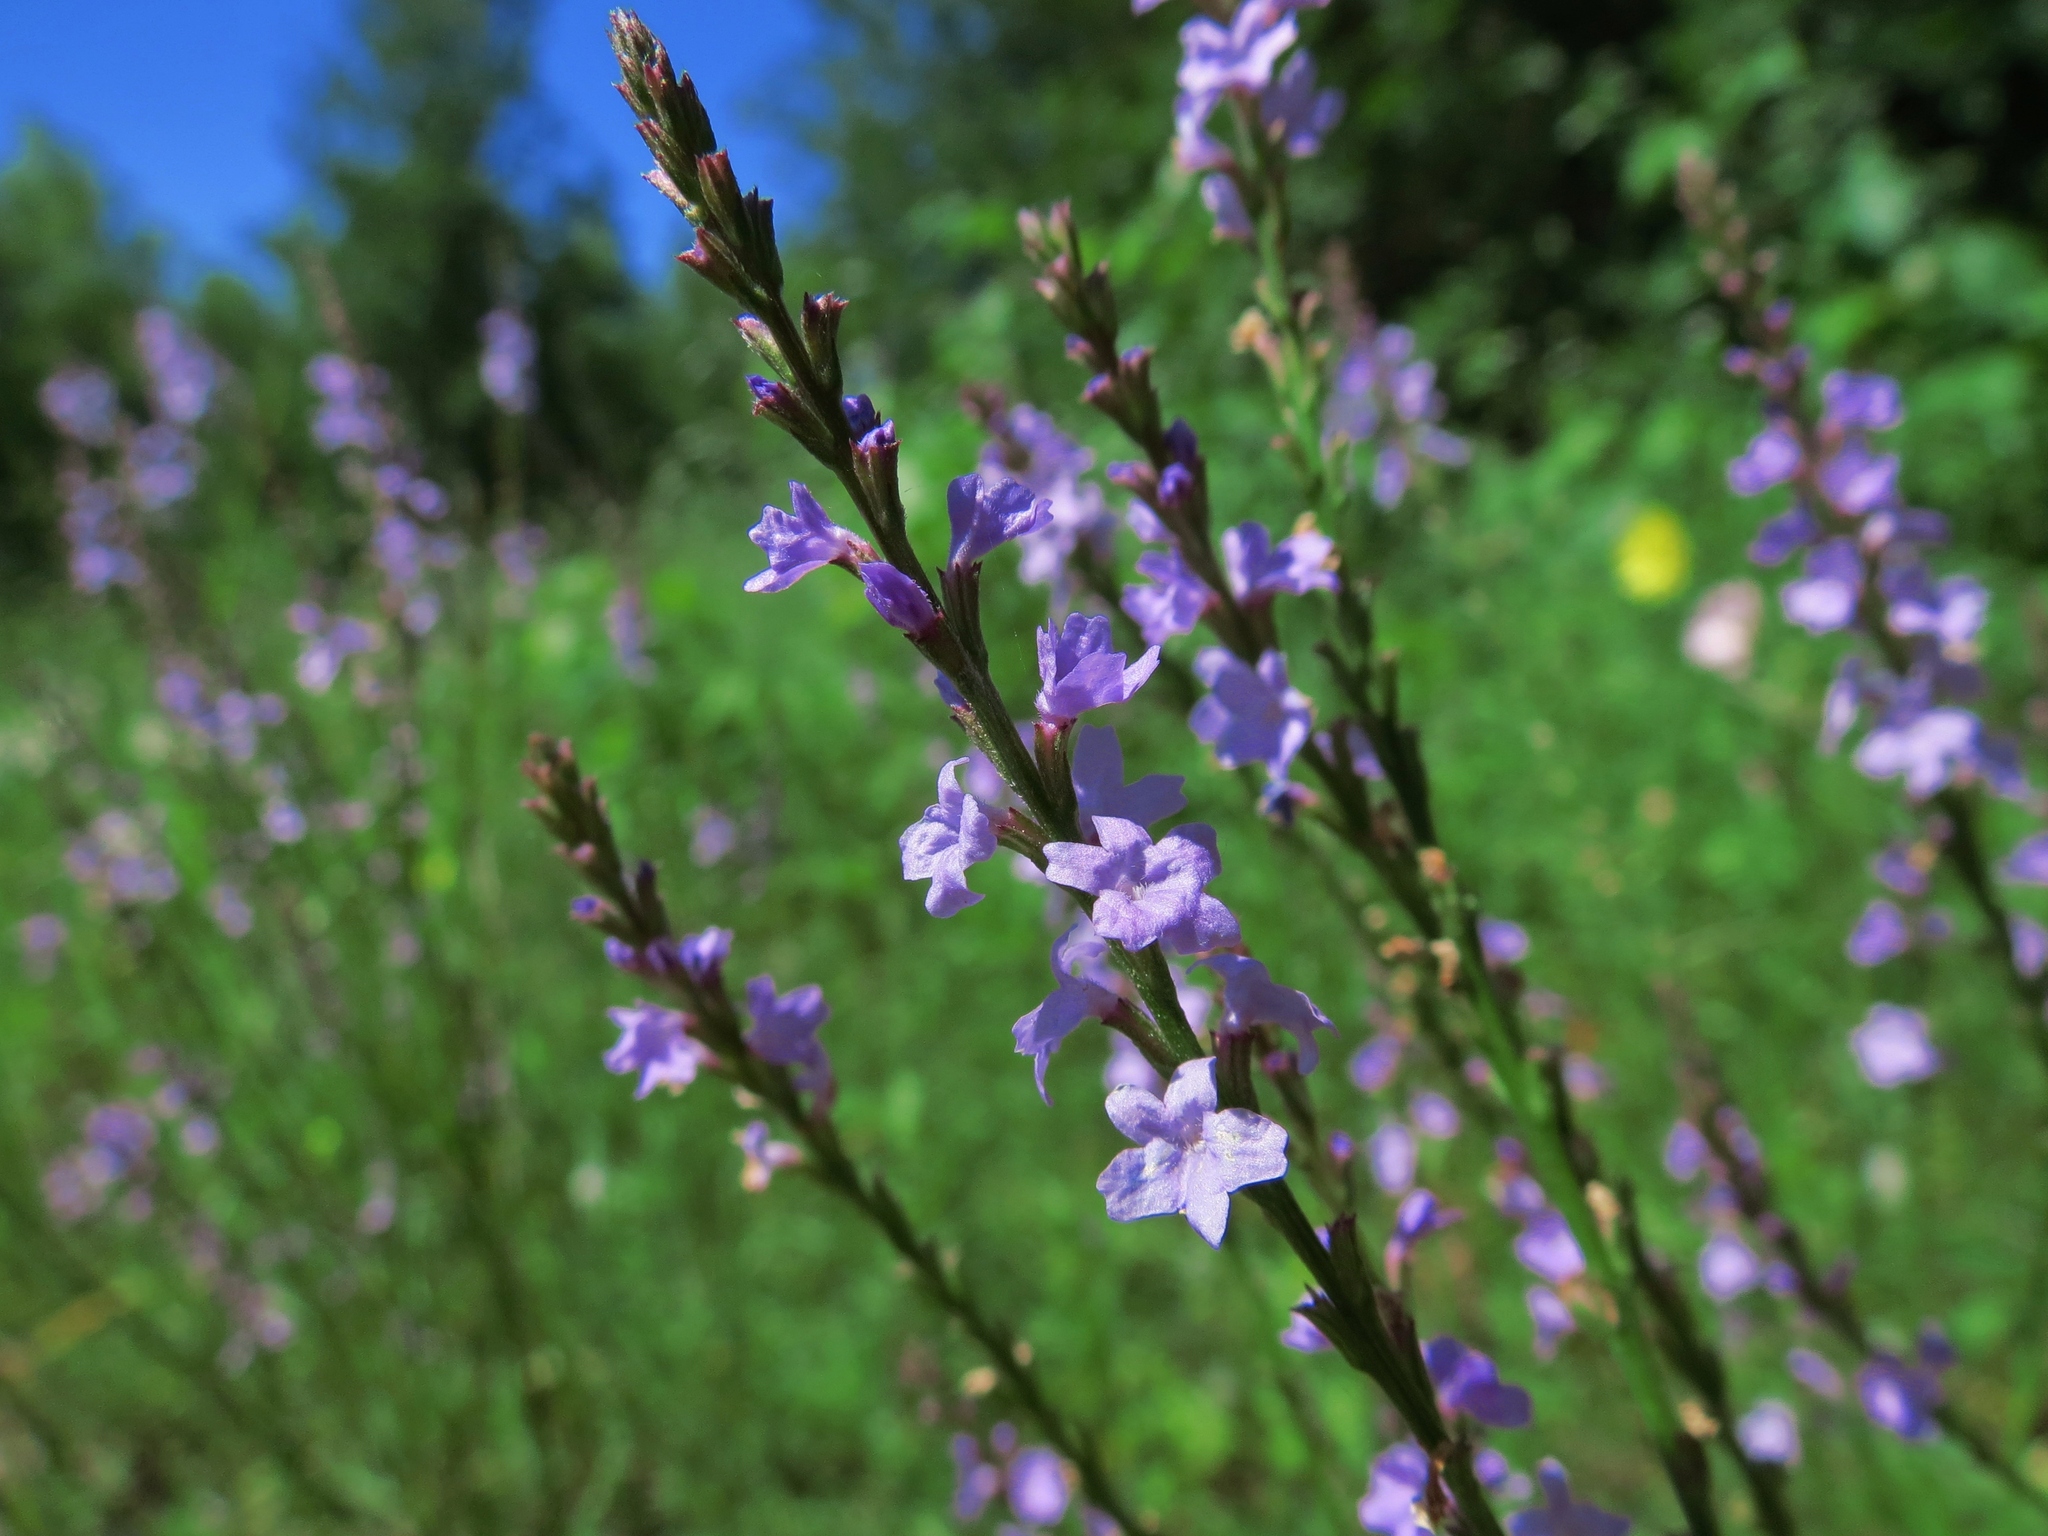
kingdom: Plantae
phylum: Tracheophyta
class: Magnoliopsida
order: Lamiales
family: Verbenaceae
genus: Verbena
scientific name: Verbena halei
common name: Texas vervain
